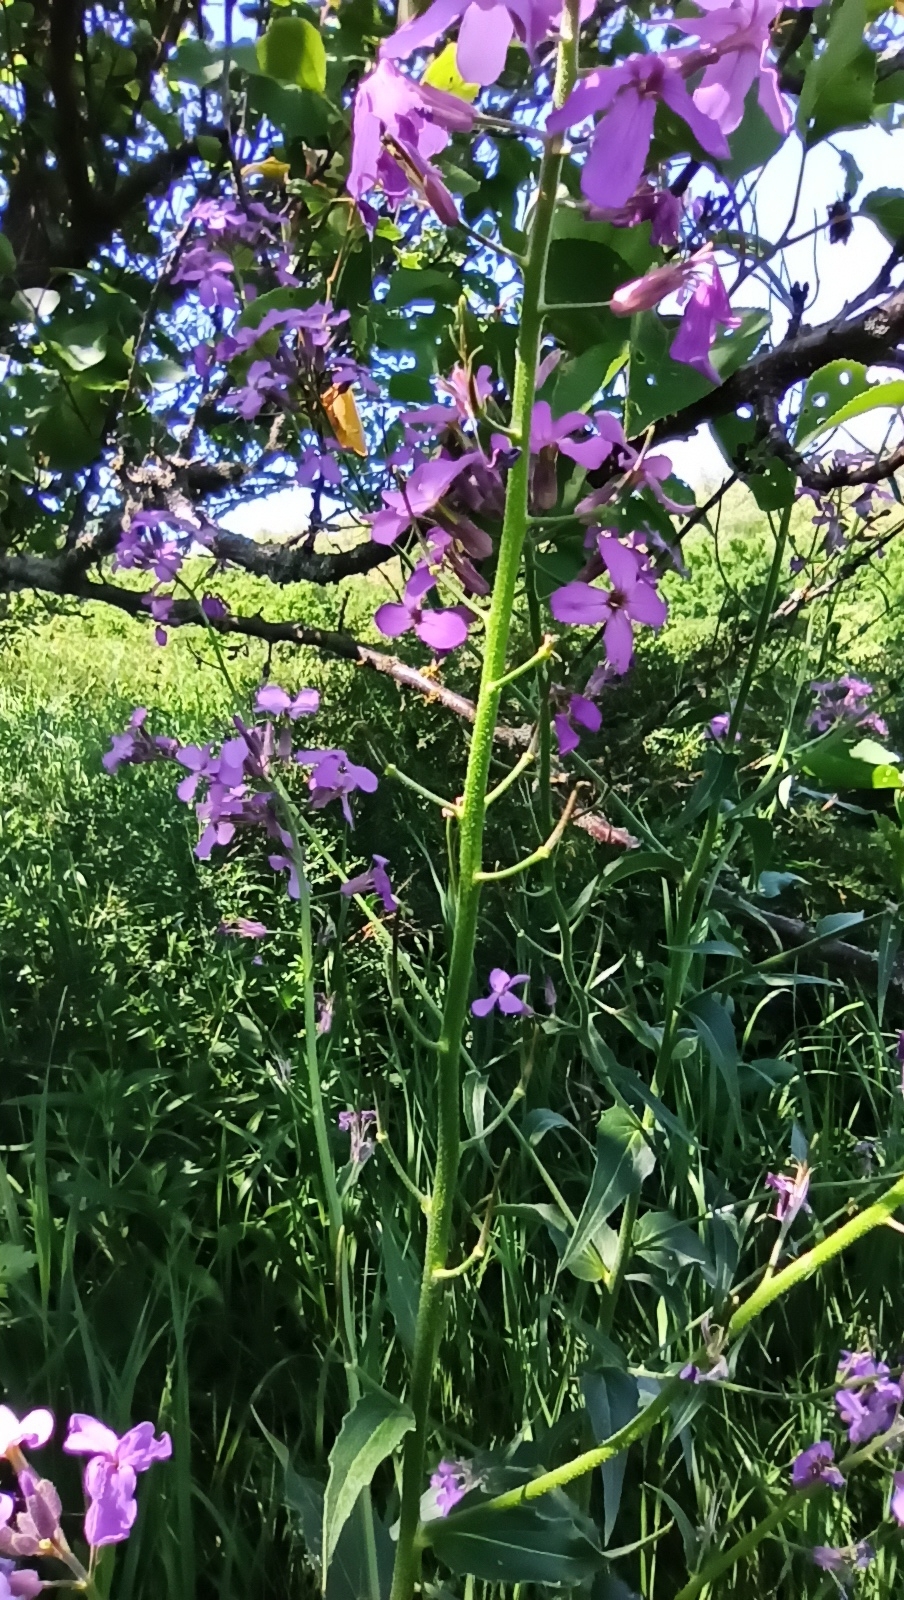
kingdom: Plantae
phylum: Tracheophyta
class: Magnoliopsida
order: Brassicales
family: Brassicaceae
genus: Hesperis
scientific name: Hesperis matronalis
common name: Dame's-violet
